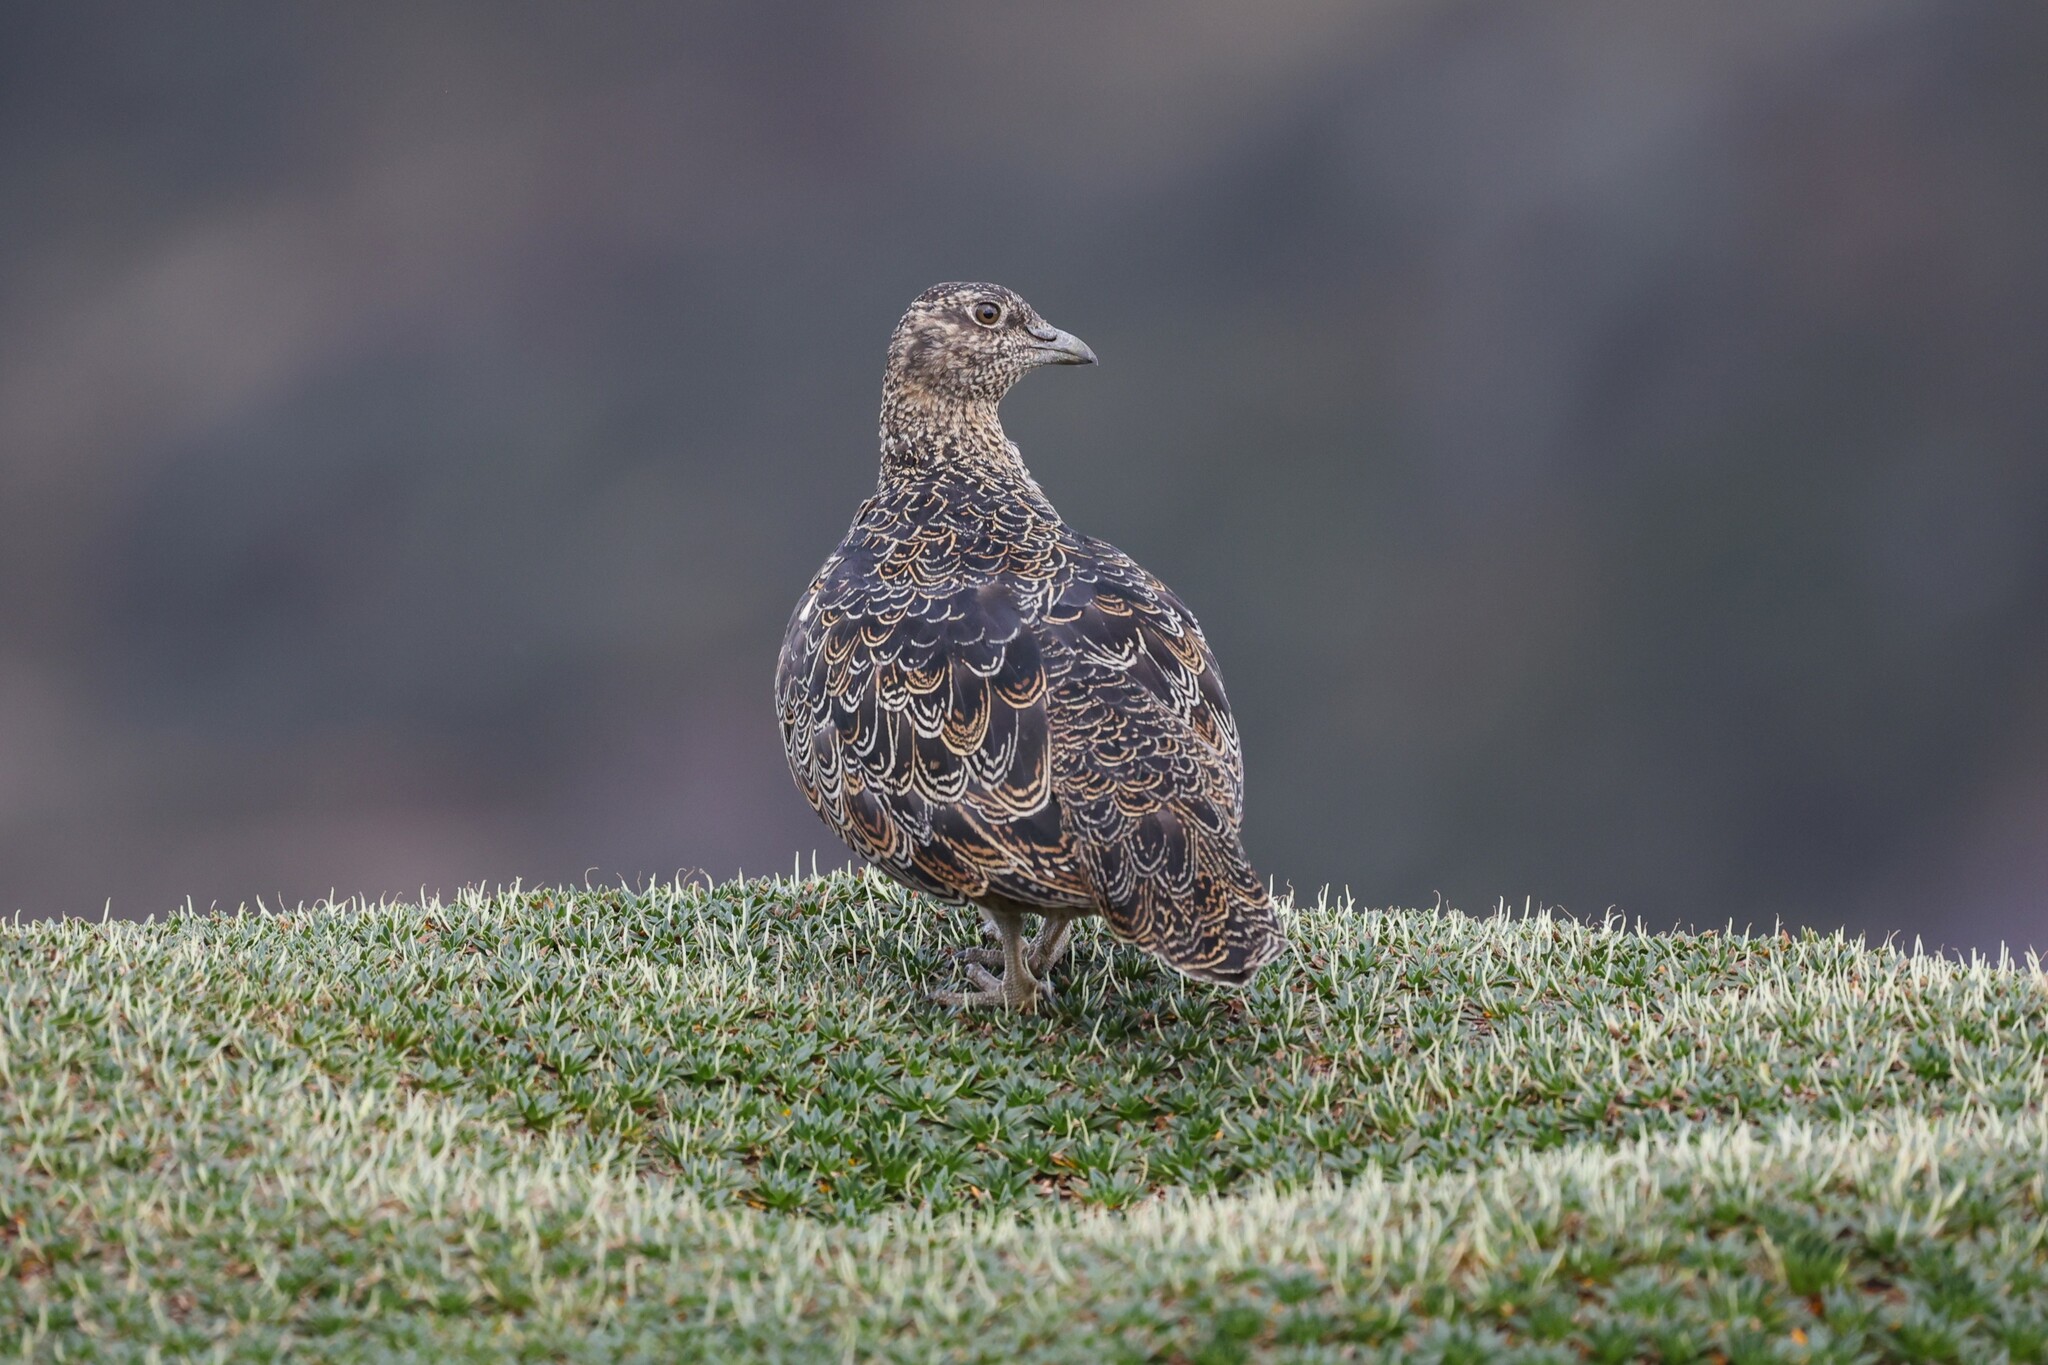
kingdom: Animalia
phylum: Chordata
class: Aves
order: Charadriiformes
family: Thinocoridae
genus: Attagis
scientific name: Attagis gayi
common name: Rufous-bellied seedsnipe
